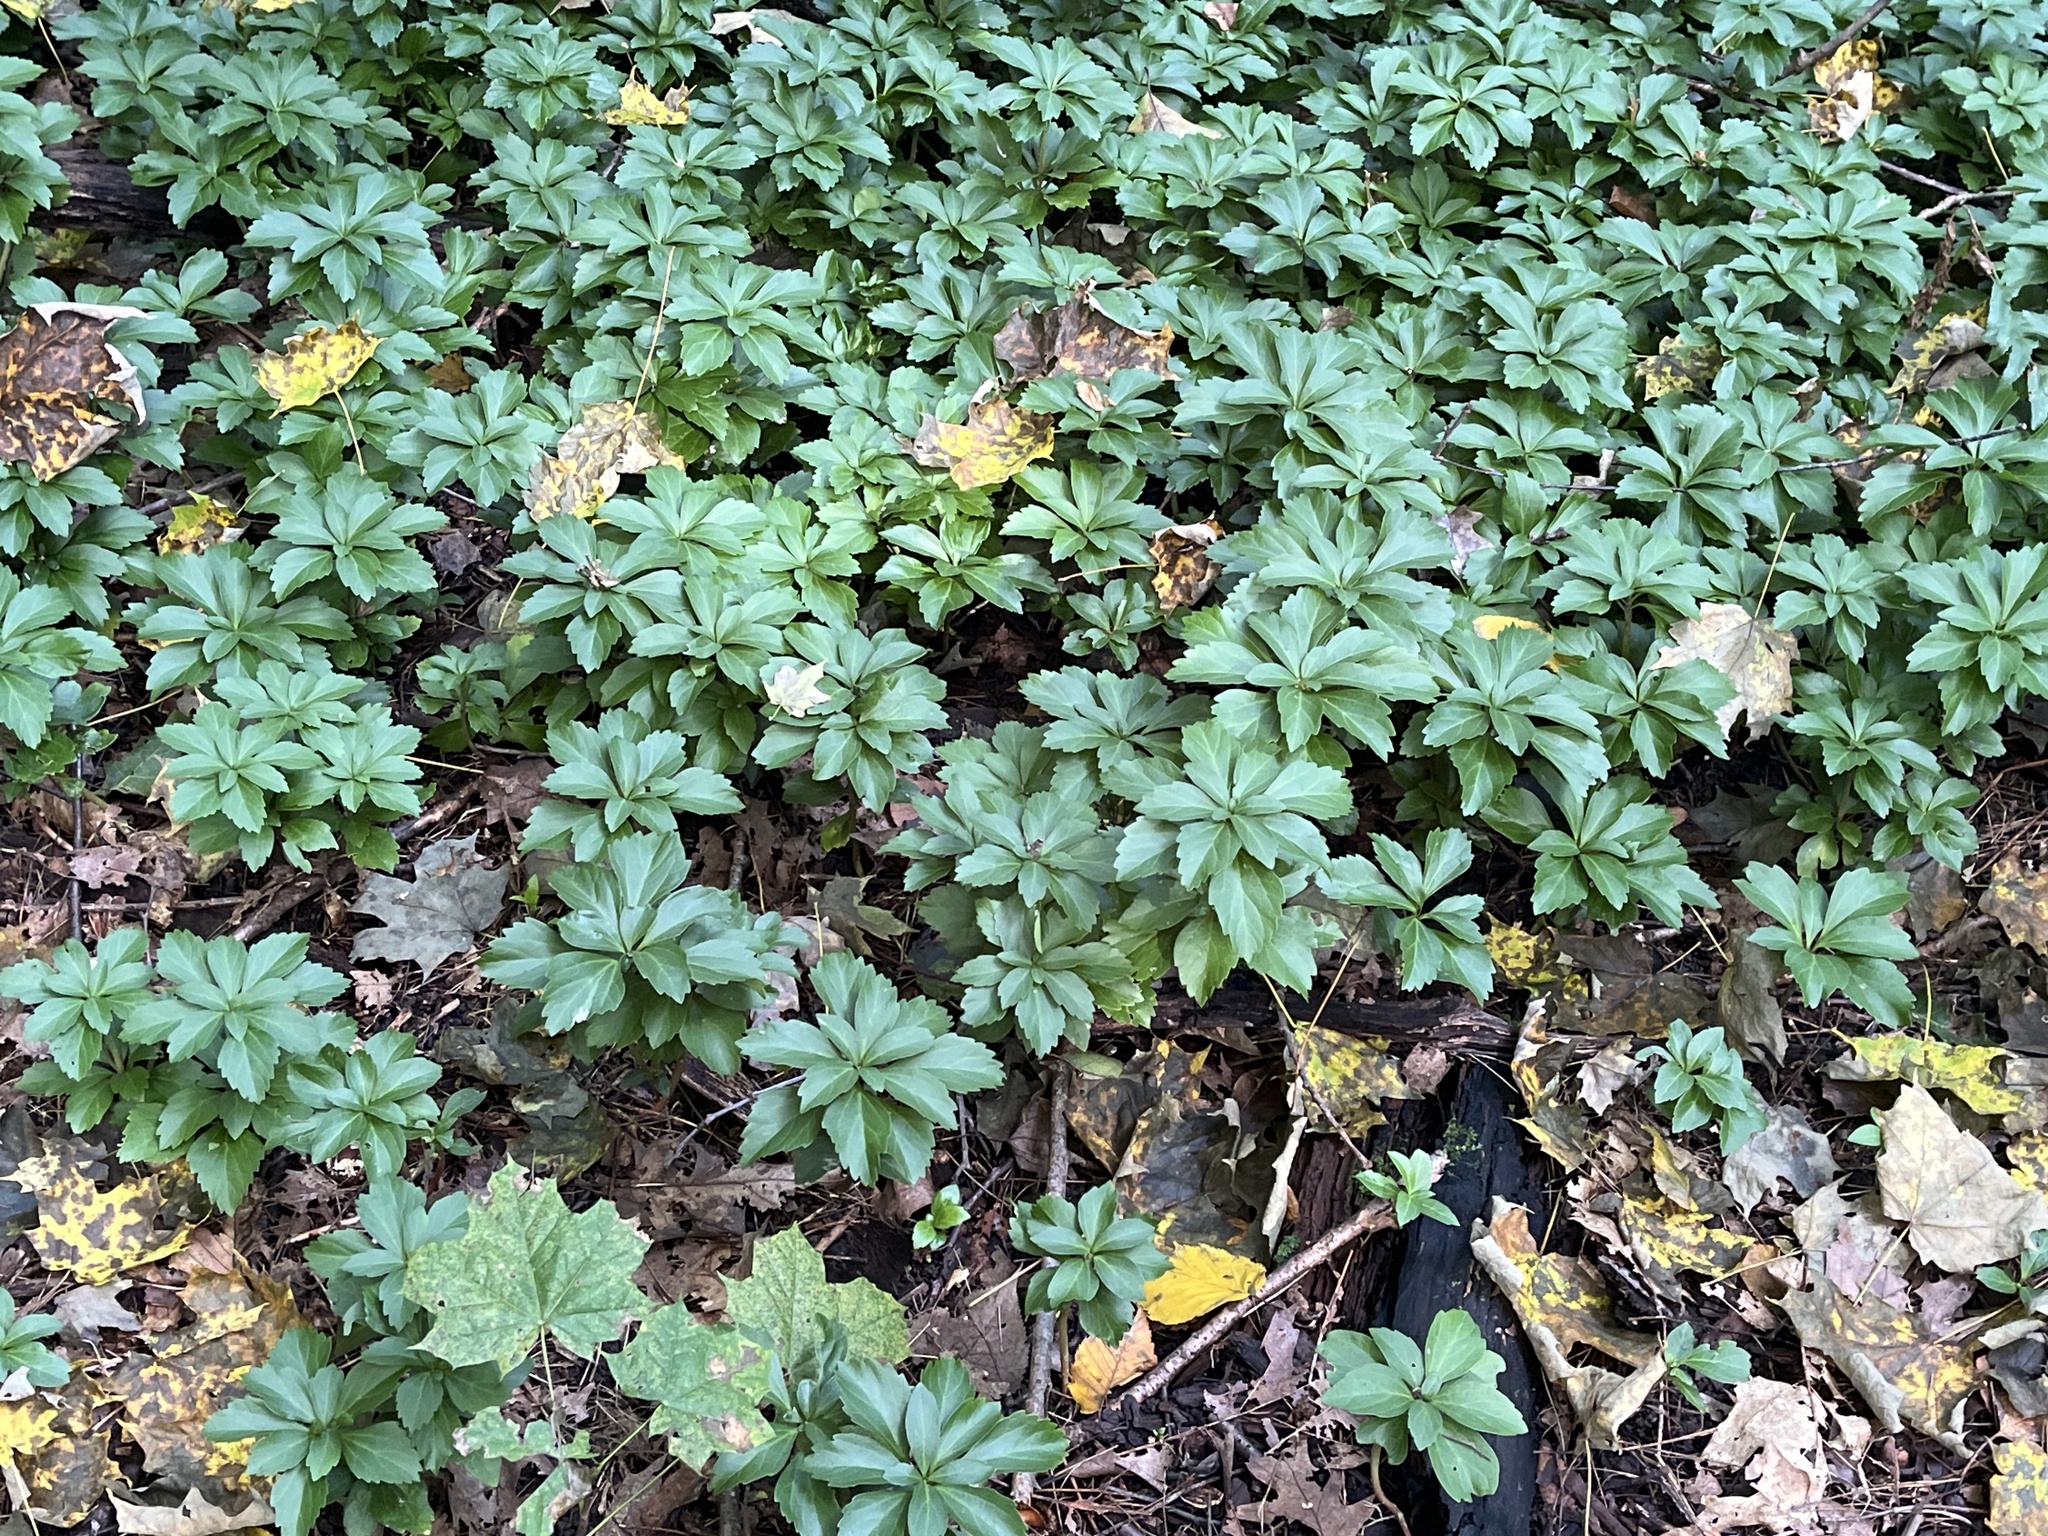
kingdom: Plantae
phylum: Tracheophyta
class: Magnoliopsida
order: Buxales
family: Buxaceae
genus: Pachysandra
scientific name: Pachysandra terminalis
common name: Japanese pachysandra
